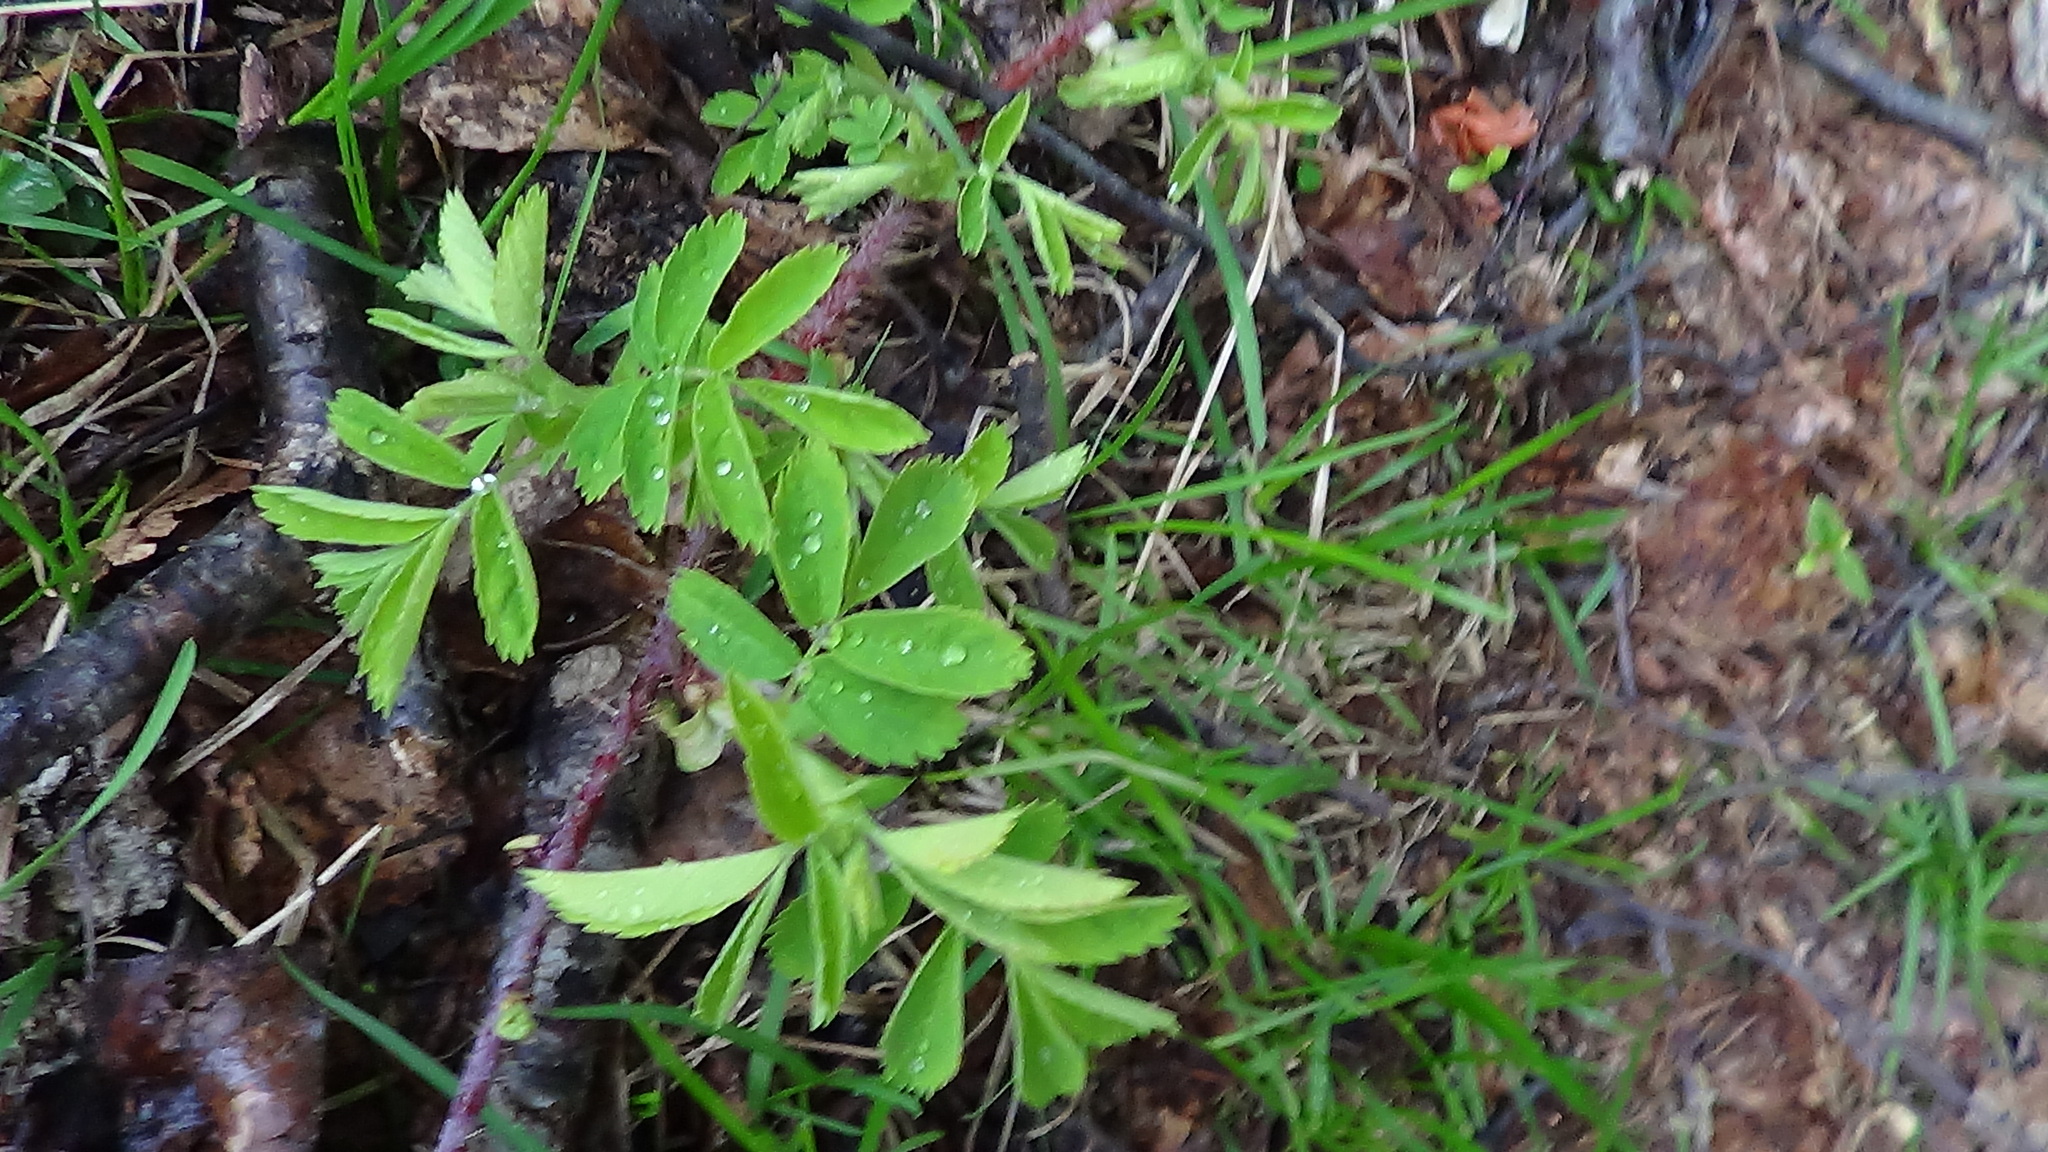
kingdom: Plantae
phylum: Tracheophyta
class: Magnoliopsida
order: Rosales
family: Rosaceae
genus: Rosa
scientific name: Rosa
